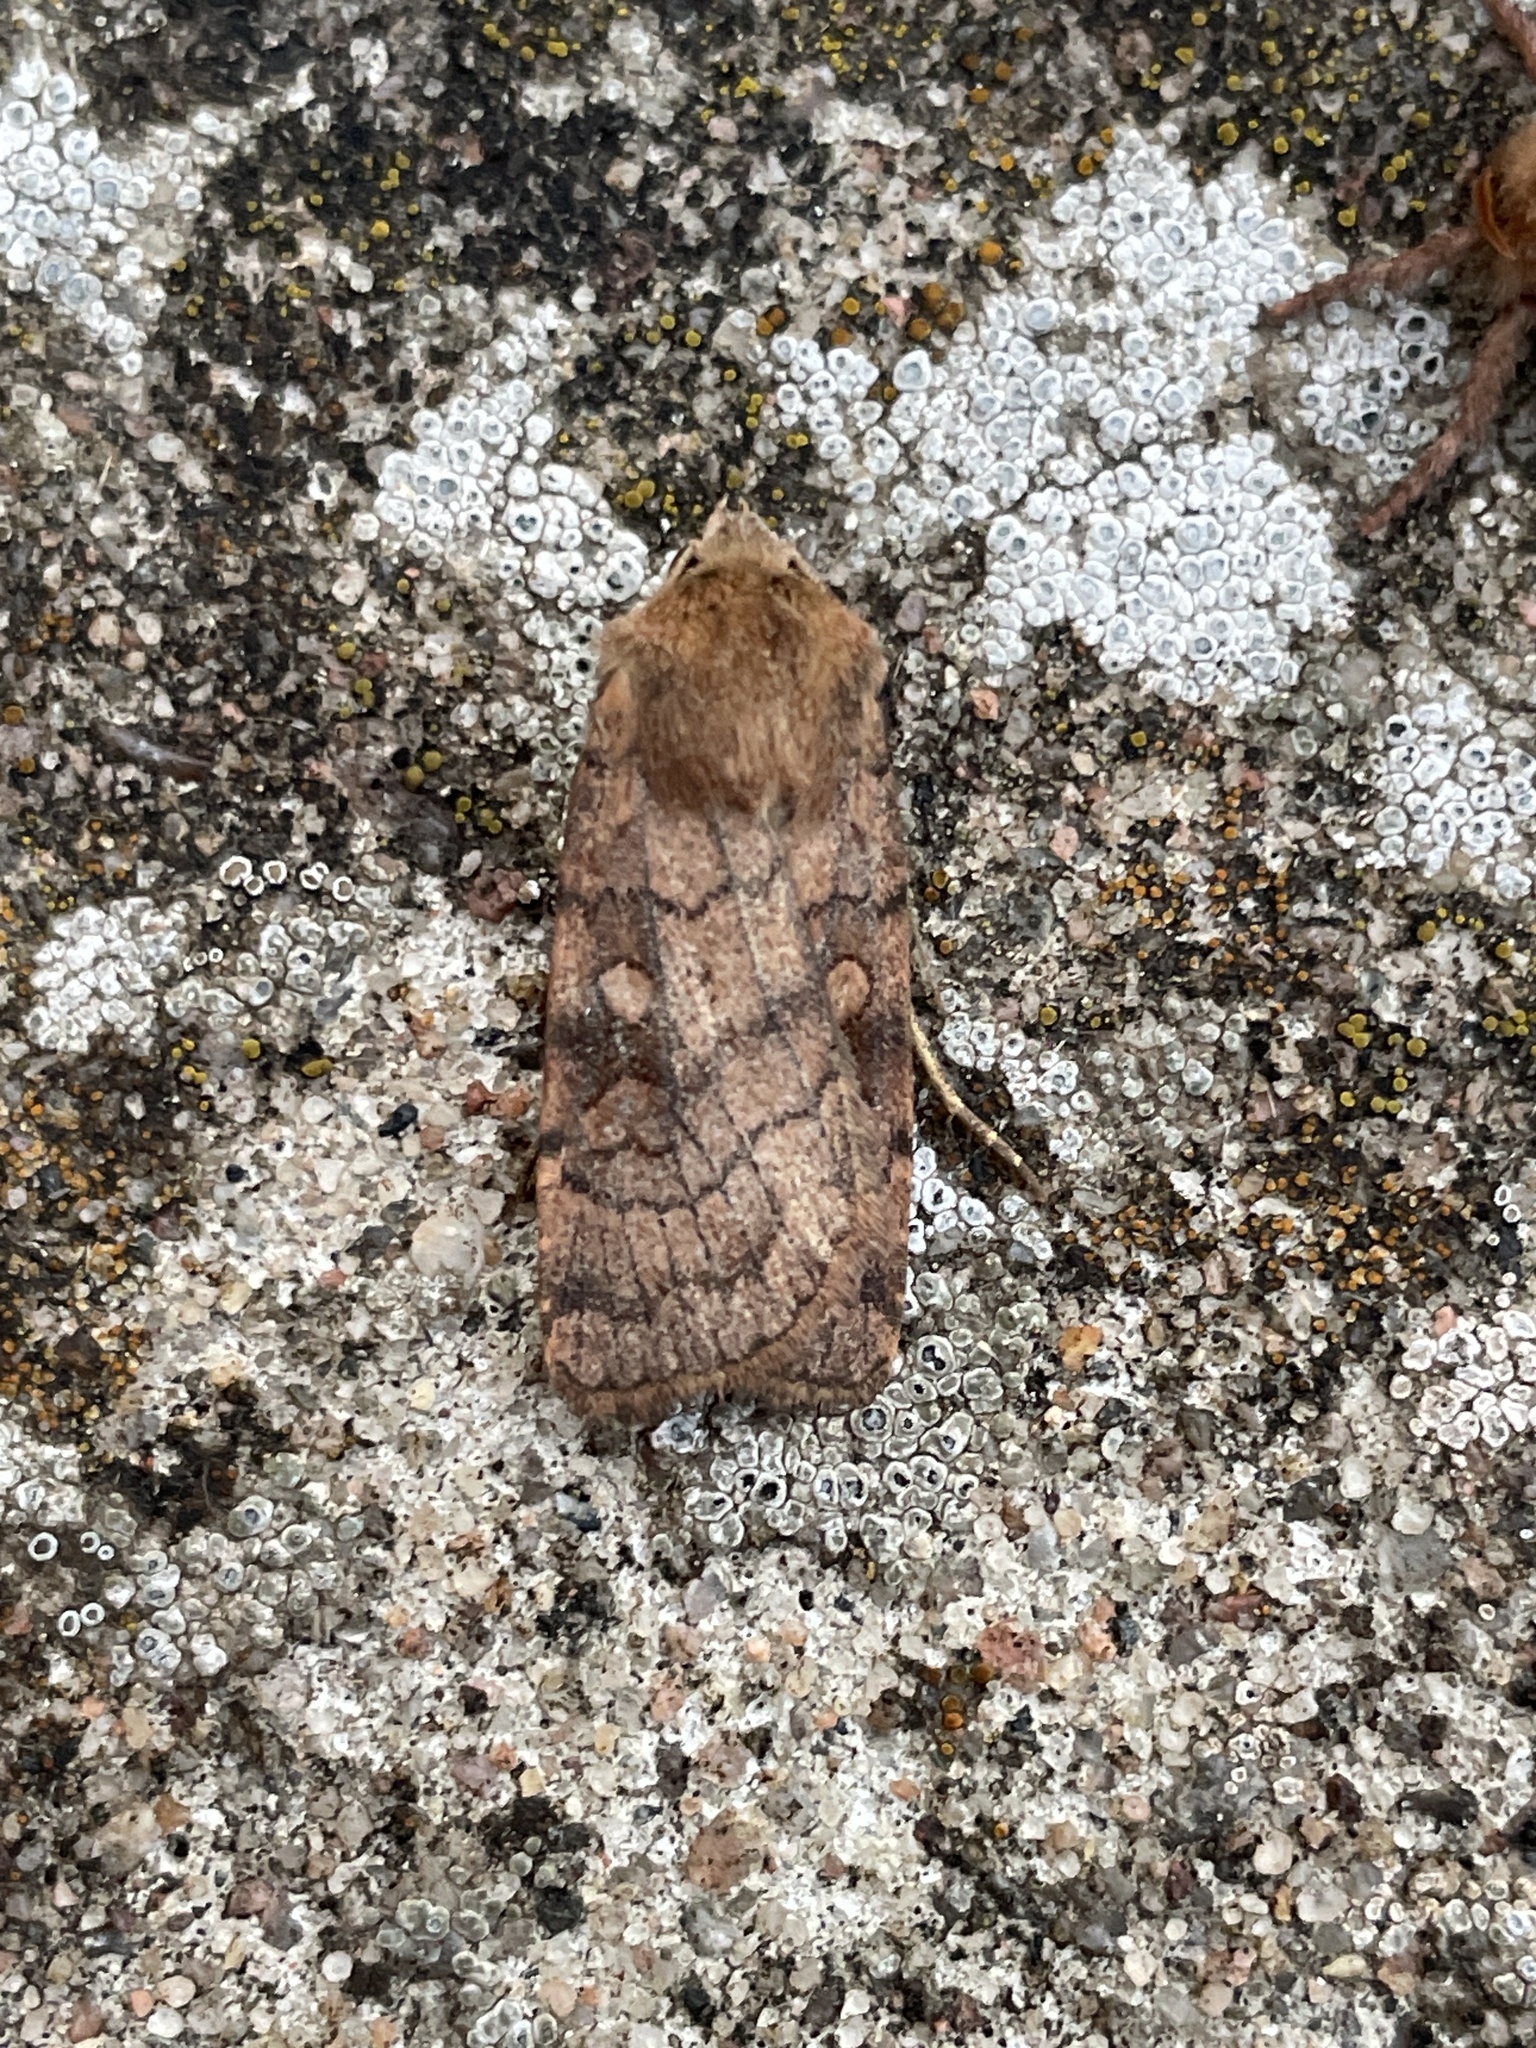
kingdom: Animalia
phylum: Arthropoda
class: Insecta
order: Lepidoptera
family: Noctuidae
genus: Xestia
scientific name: Xestia sexstrigata
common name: Six-striped rustic
